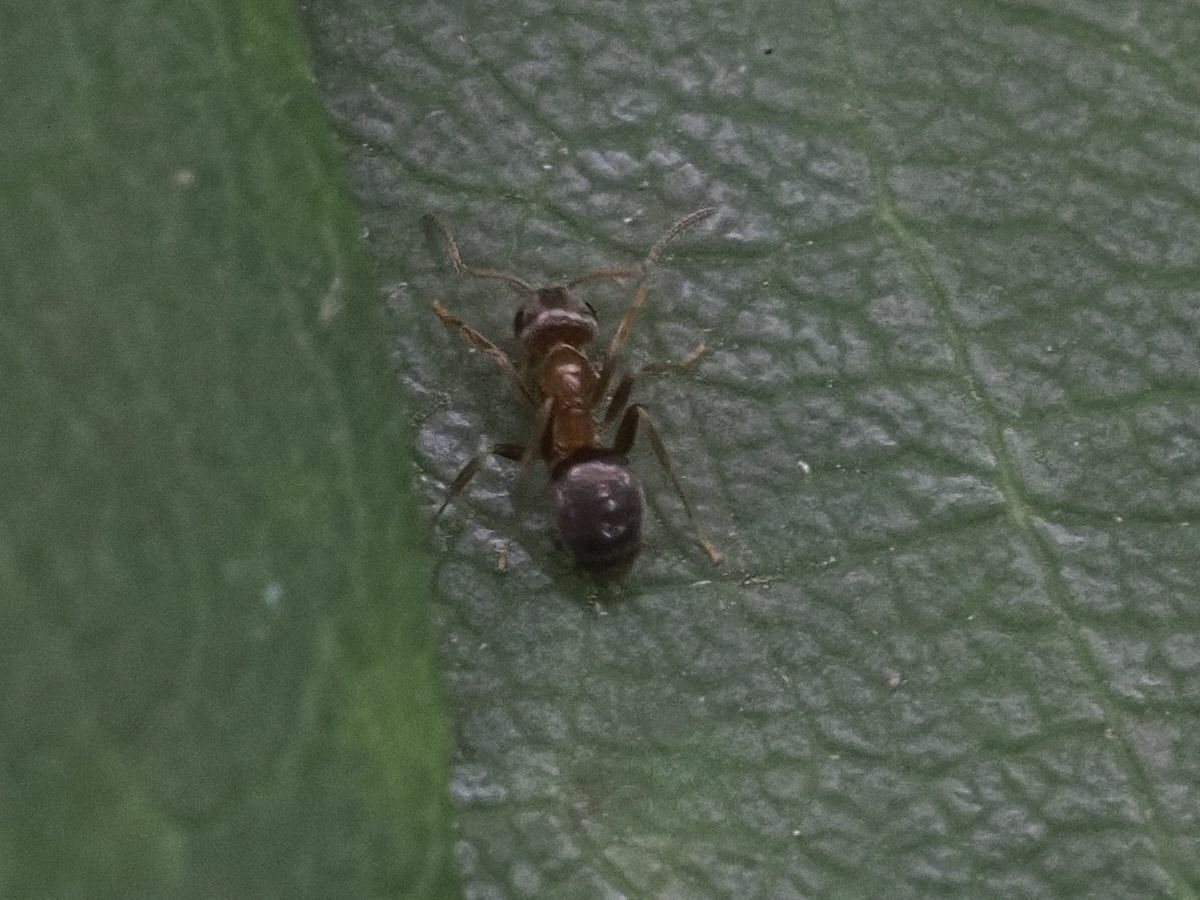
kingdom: Animalia
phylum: Arthropoda
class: Insecta
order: Hymenoptera
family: Formicidae
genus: Lasius
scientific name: Lasius brunneus
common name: Brown ant
